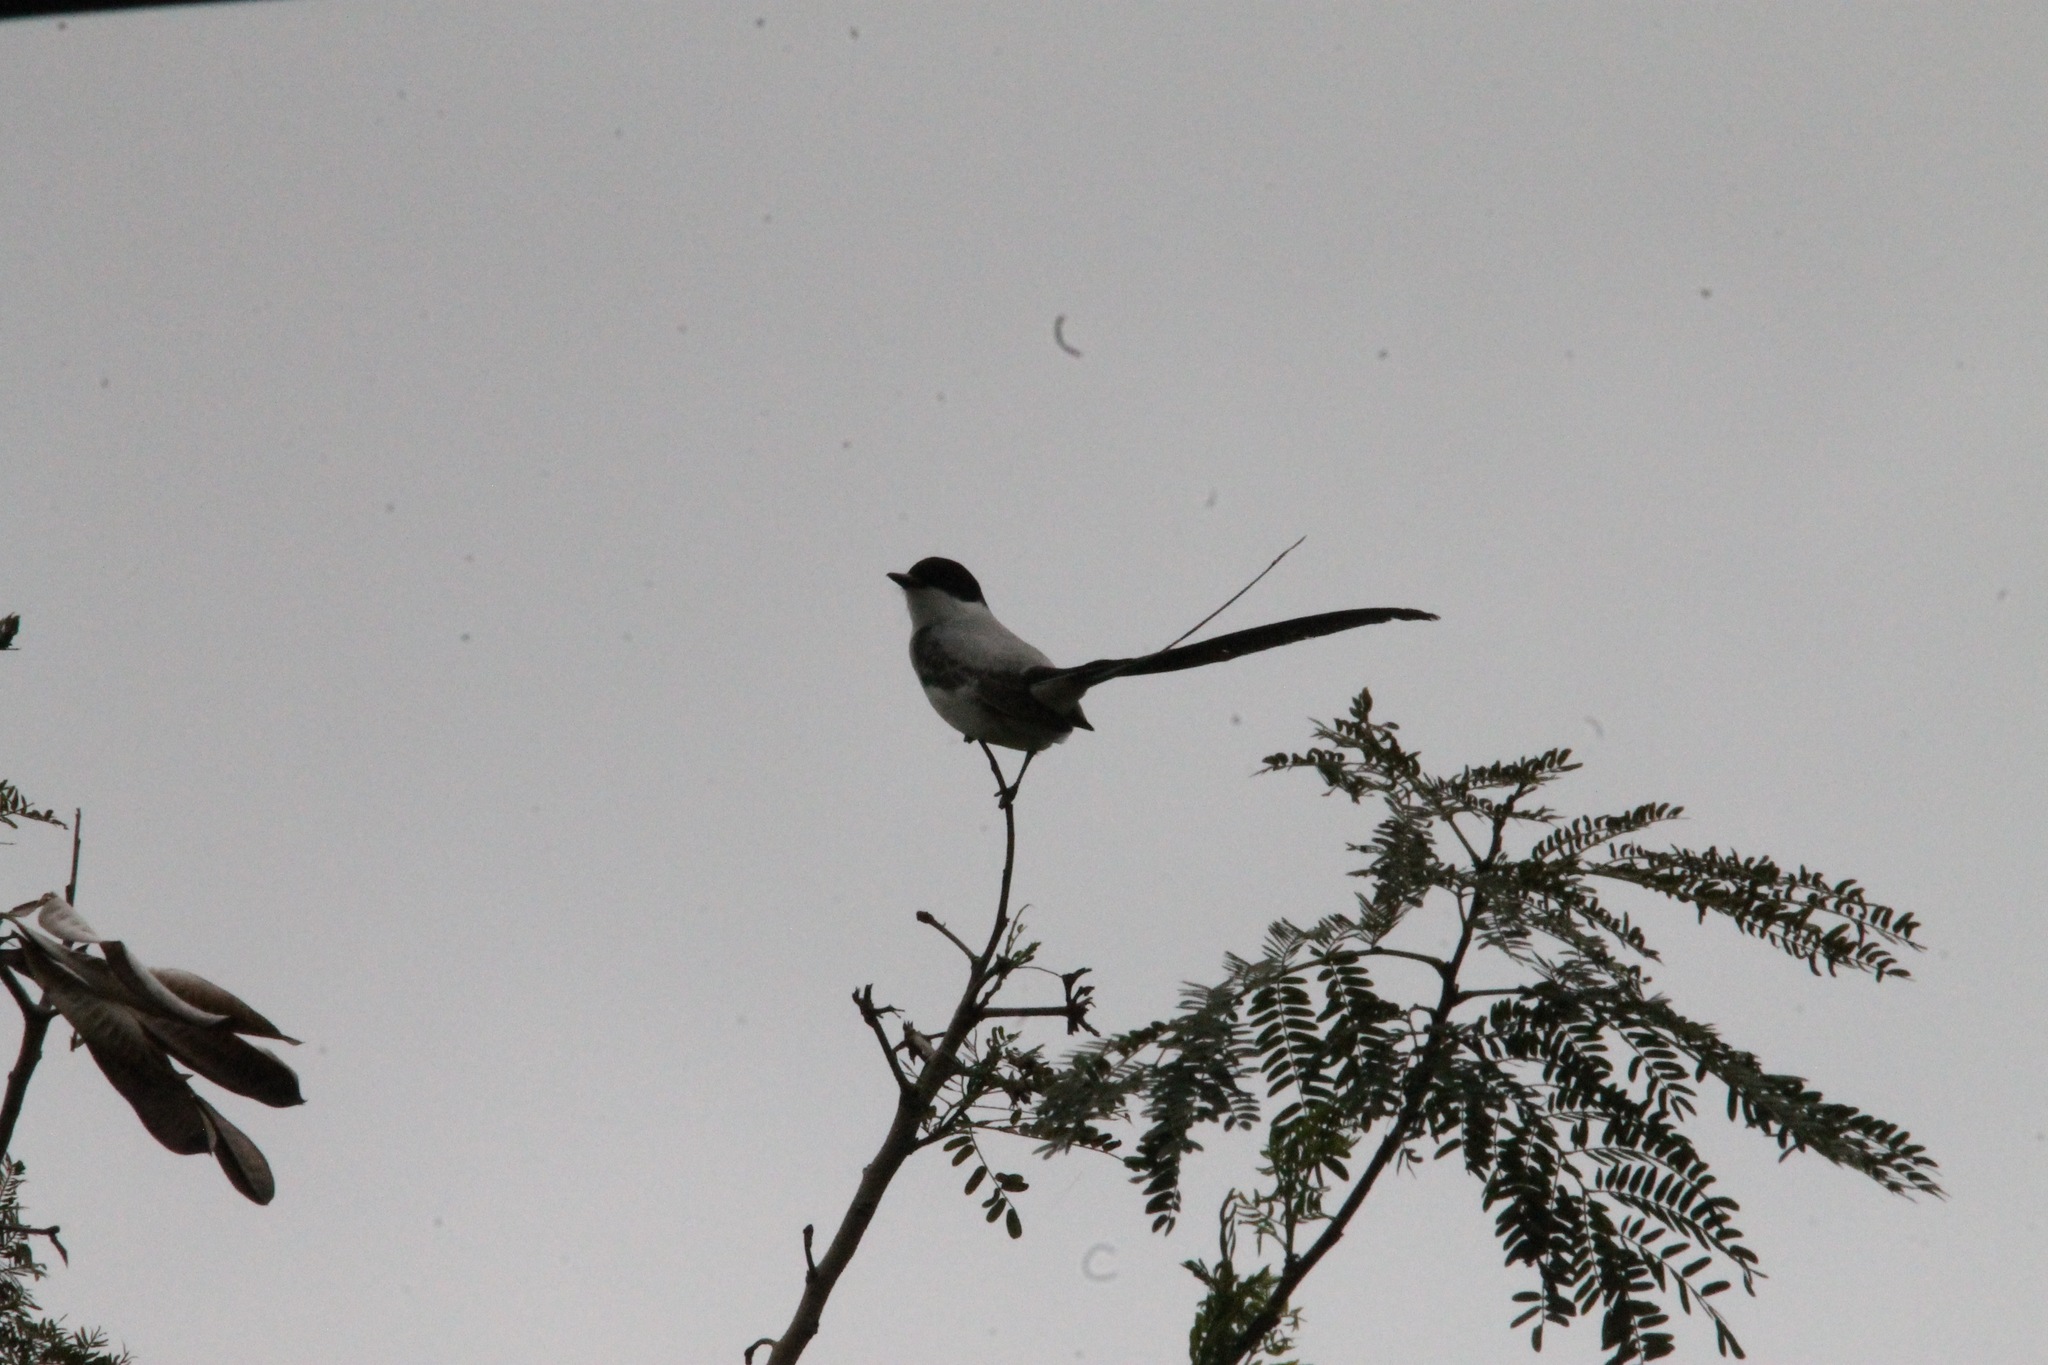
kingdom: Animalia
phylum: Chordata
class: Aves
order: Passeriformes
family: Tyrannidae
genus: Tyrannus
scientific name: Tyrannus savana
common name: Fork-tailed flycatcher
